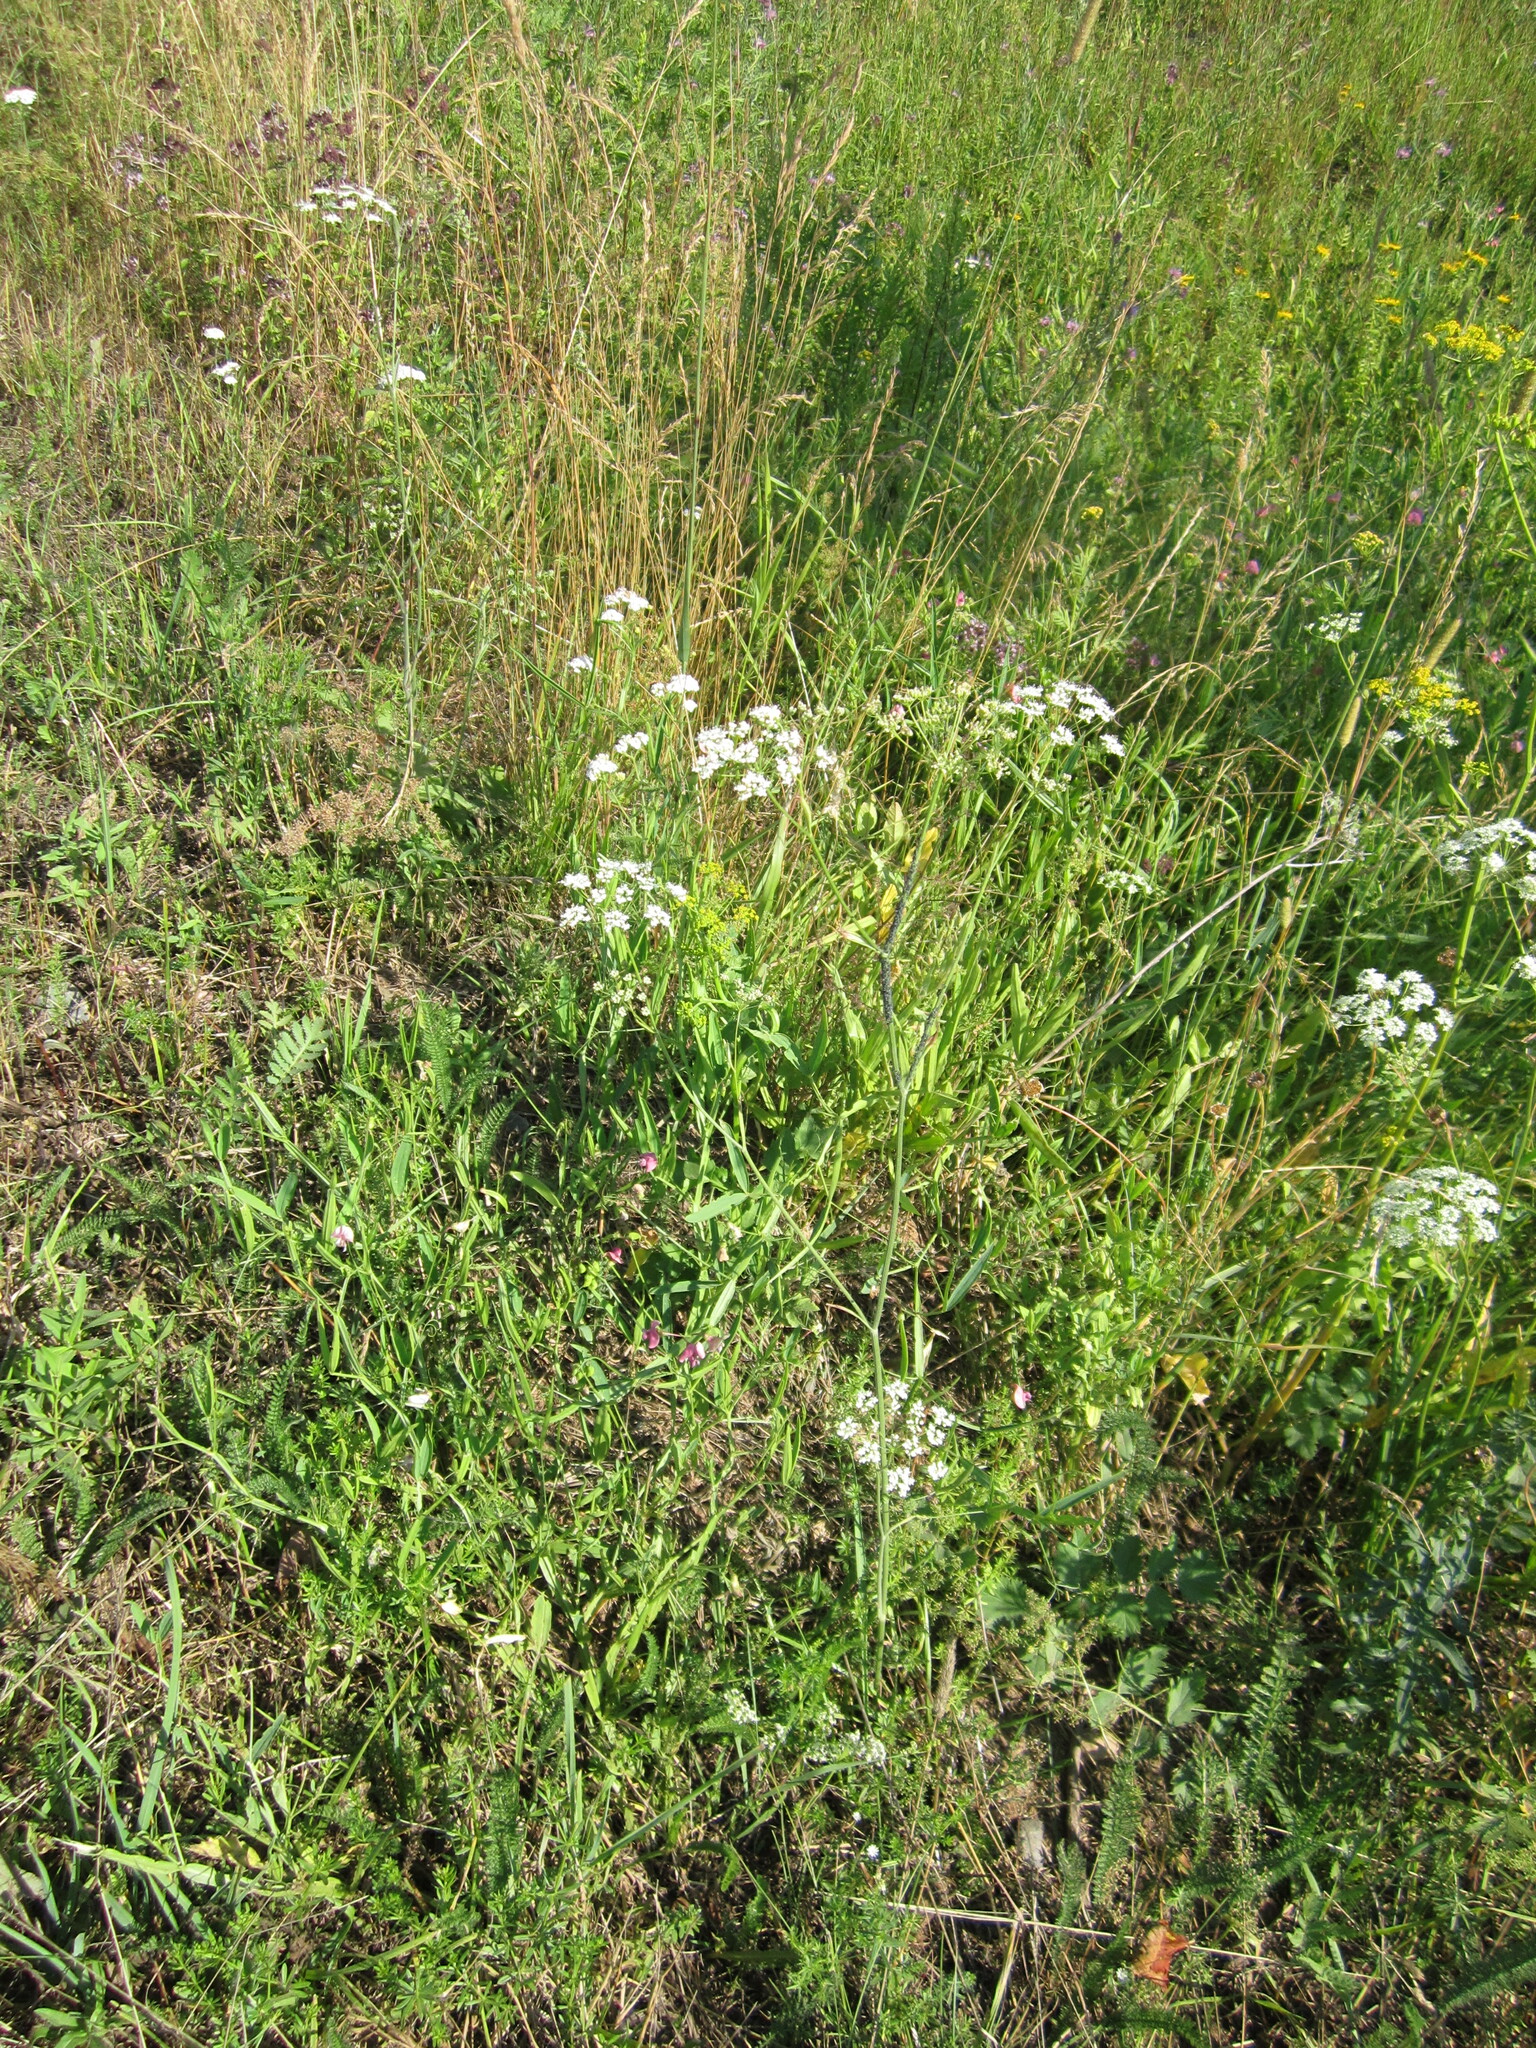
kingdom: Plantae
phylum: Tracheophyta
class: Magnoliopsida
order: Apiales
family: Apiaceae
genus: Pimpinella
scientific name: Pimpinella saxifraga
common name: Burnet-saxifrage
